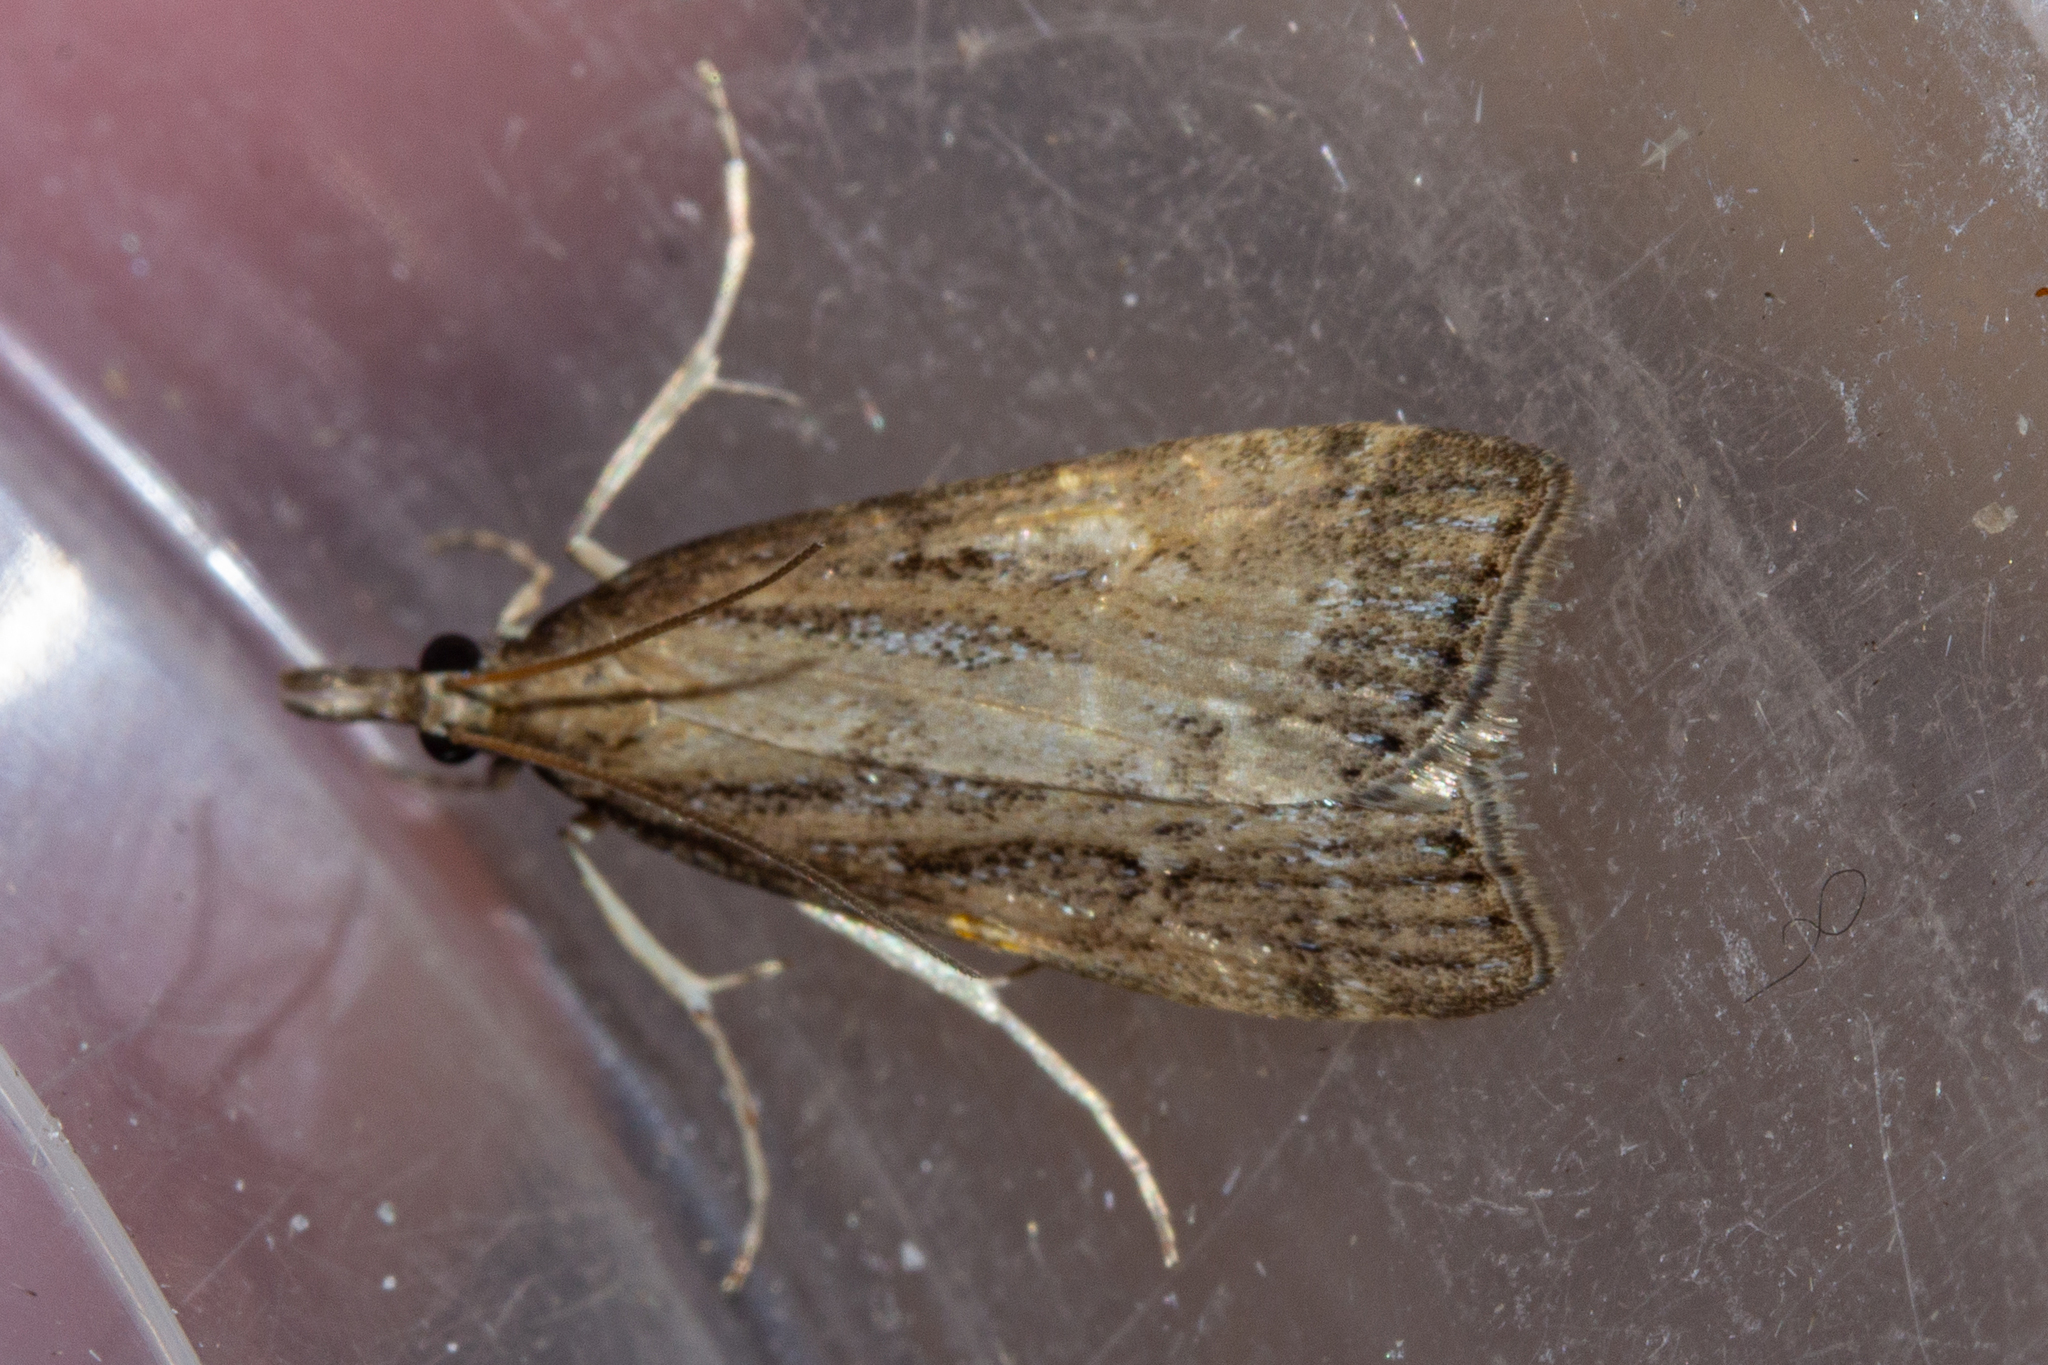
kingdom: Animalia
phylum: Arthropoda
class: Insecta
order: Lepidoptera
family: Crambidae
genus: Eudonia
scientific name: Eudonia octophora
